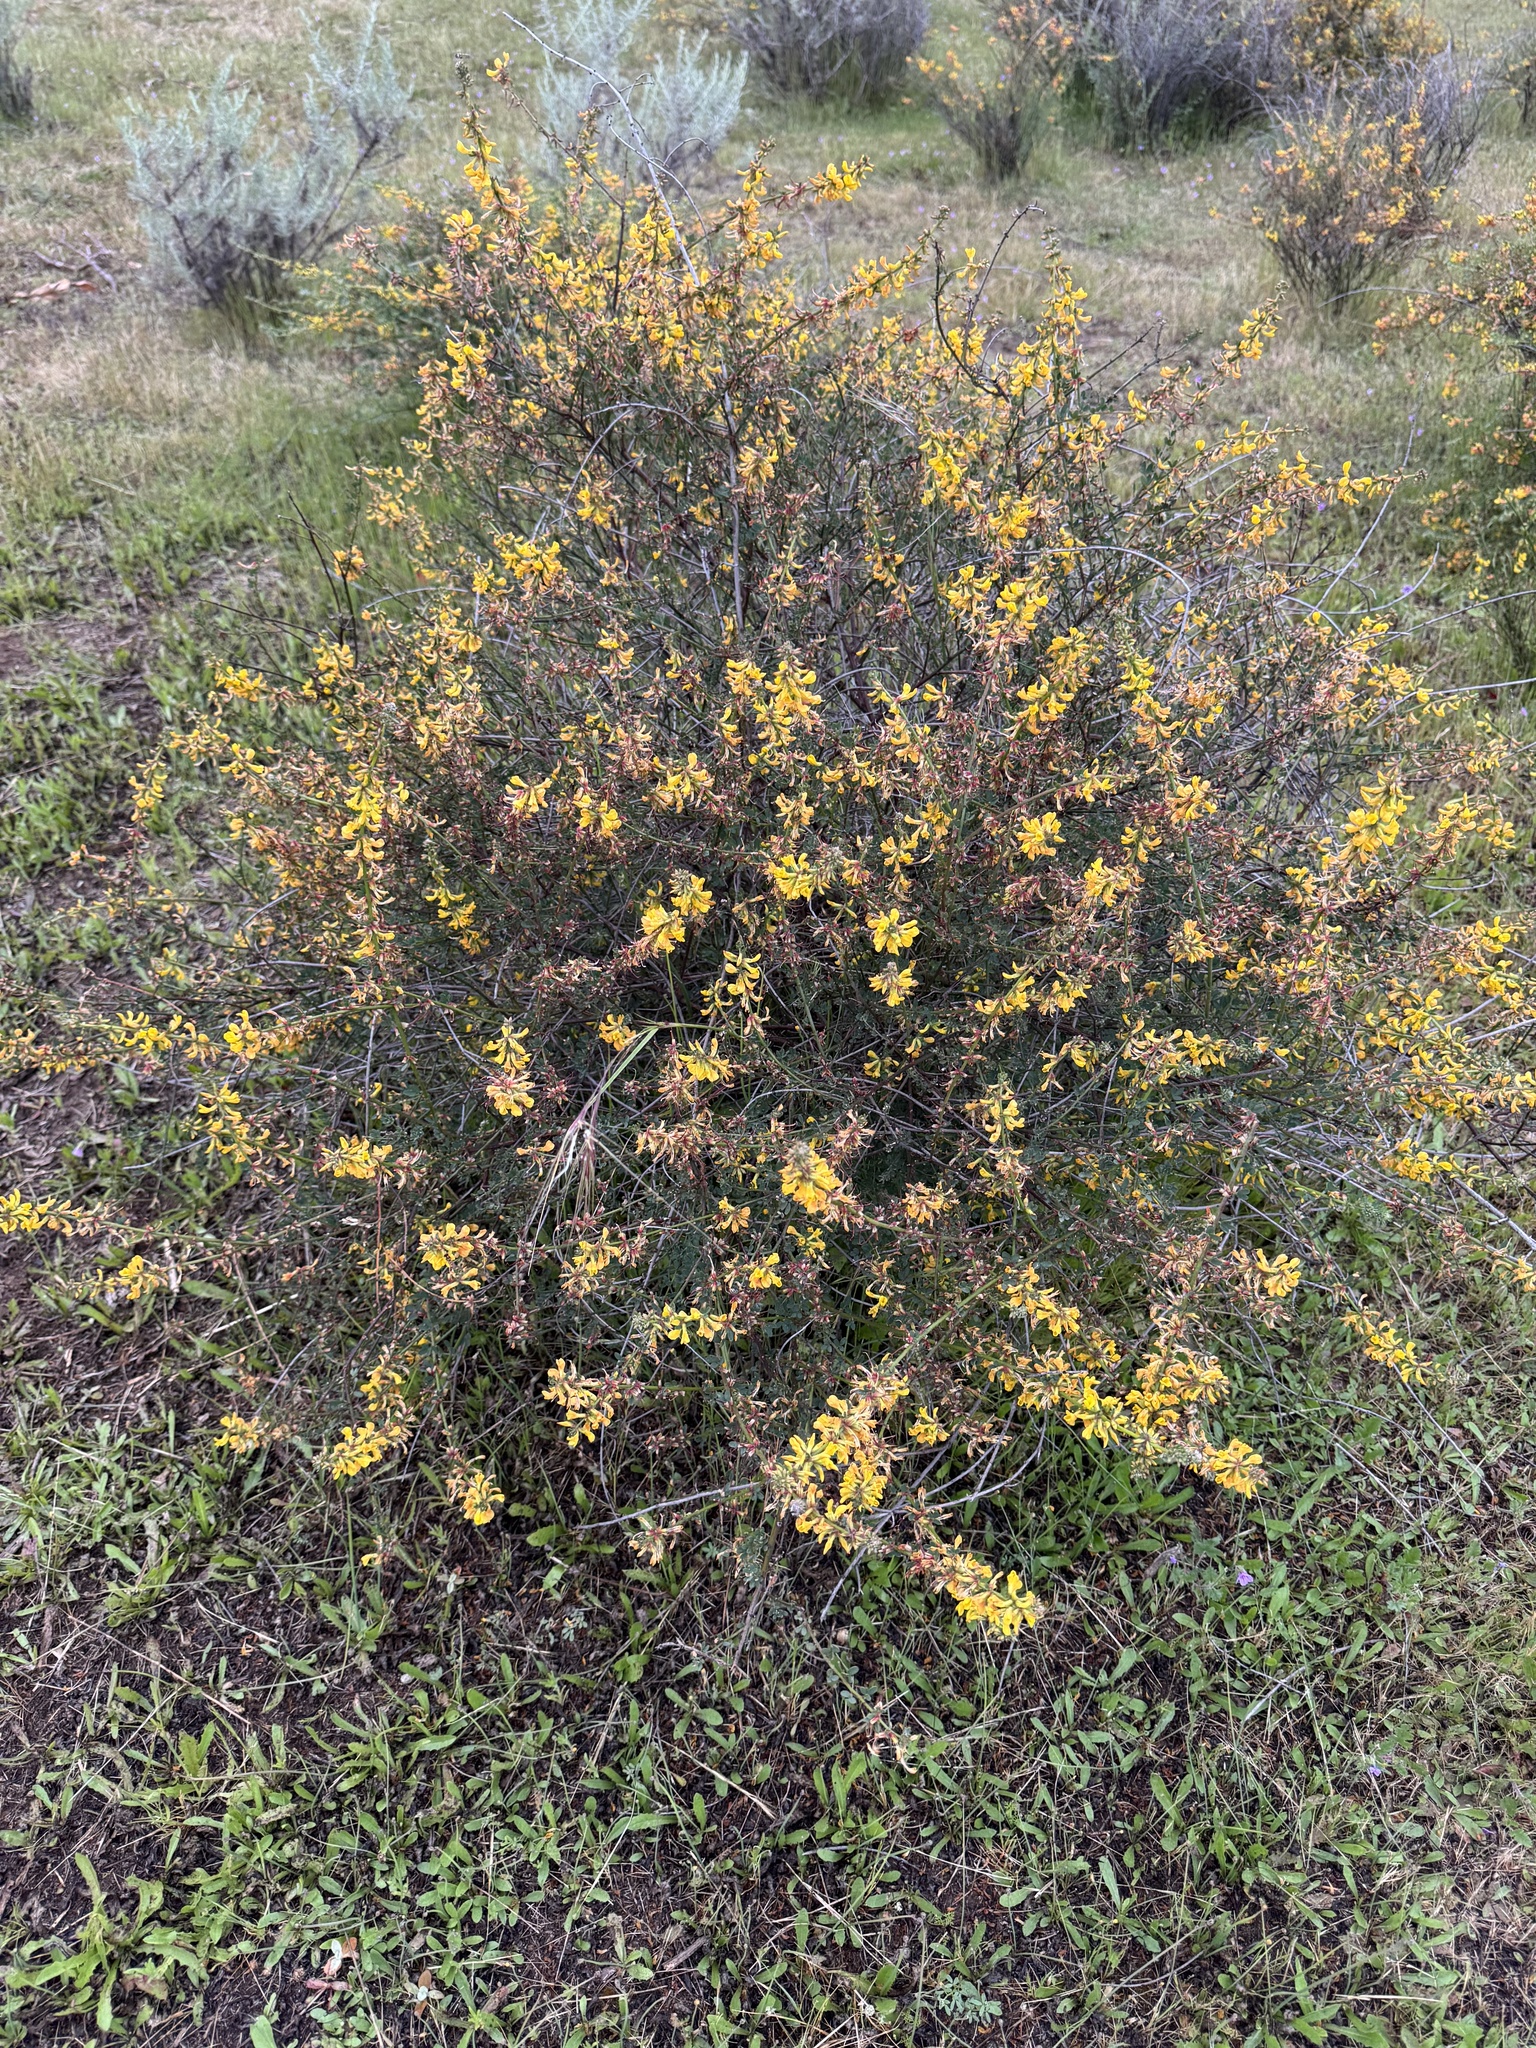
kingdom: Plantae
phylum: Tracheophyta
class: Magnoliopsida
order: Fabales
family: Fabaceae
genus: Acmispon
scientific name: Acmispon glaber
